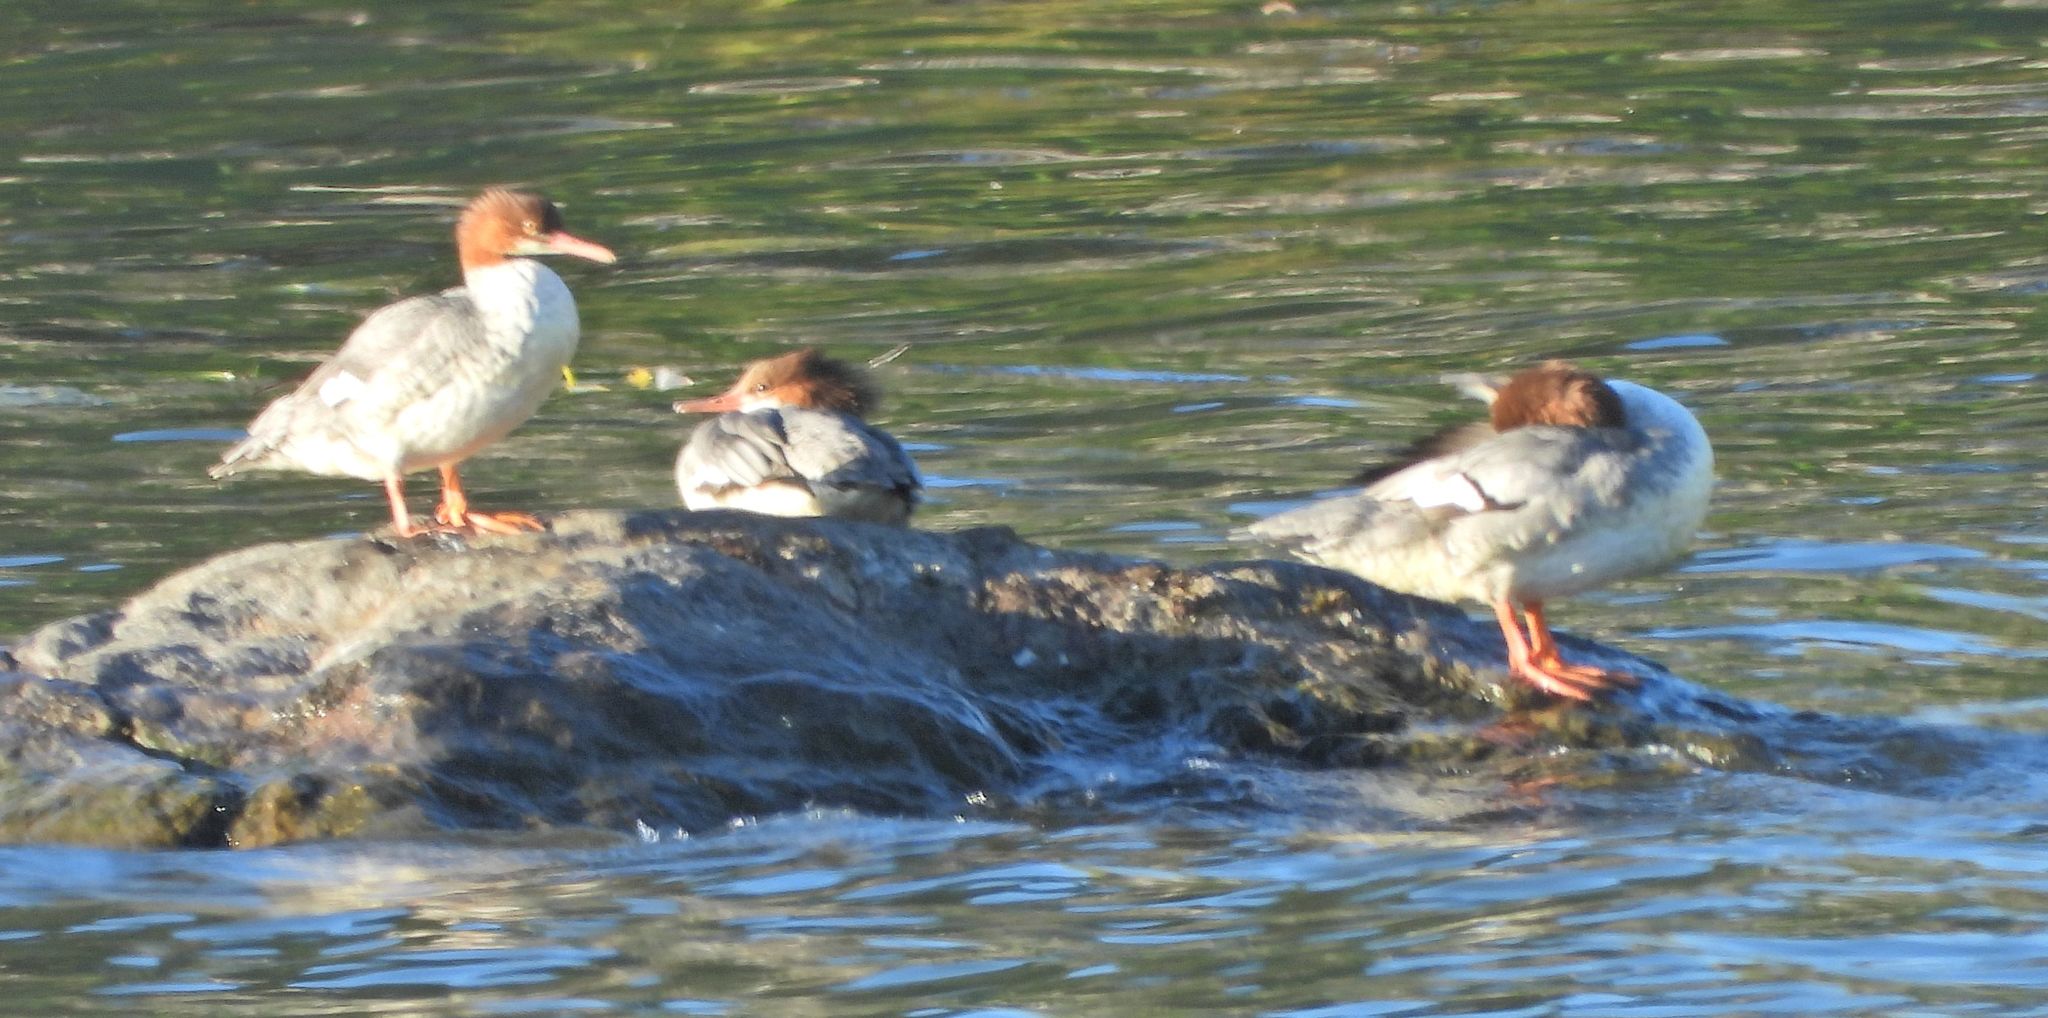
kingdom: Animalia
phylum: Chordata
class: Aves
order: Anseriformes
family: Anatidae
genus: Mergus
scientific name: Mergus merganser
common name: Common merganser
